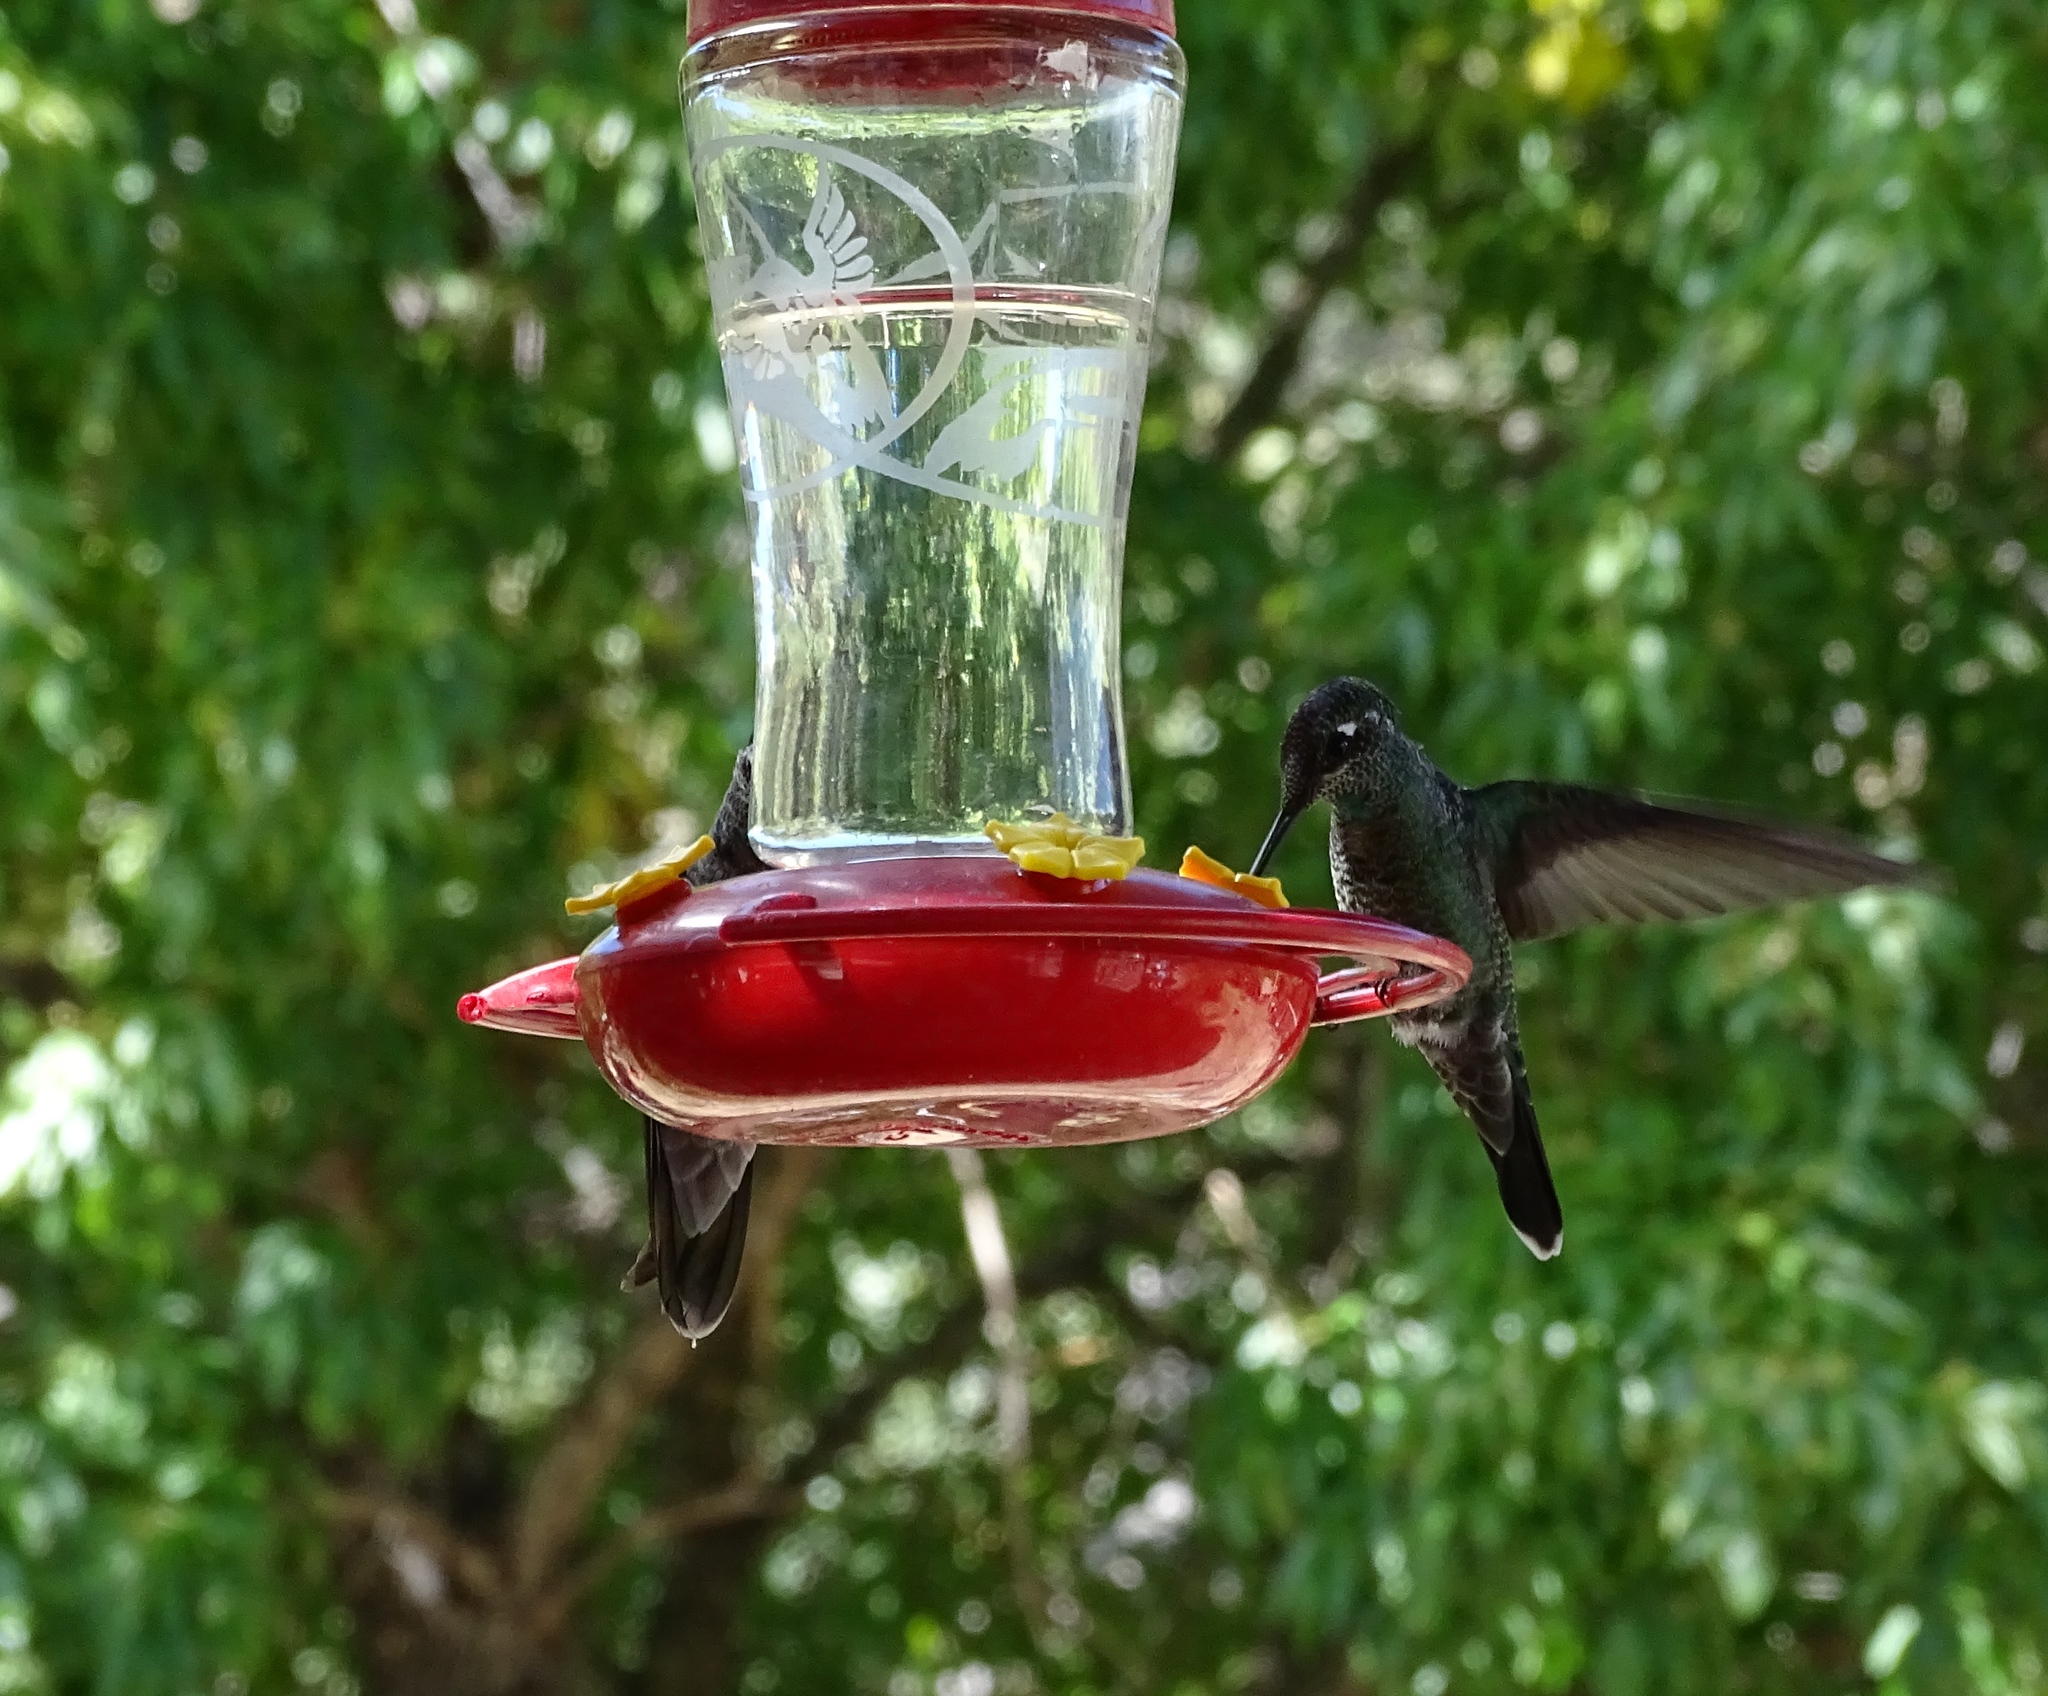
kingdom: Animalia
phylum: Chordata
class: Aves
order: Apodiformes
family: Trochilidae
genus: Eugenes
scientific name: Eugenes fulgens
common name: Magnificent hummingbird
